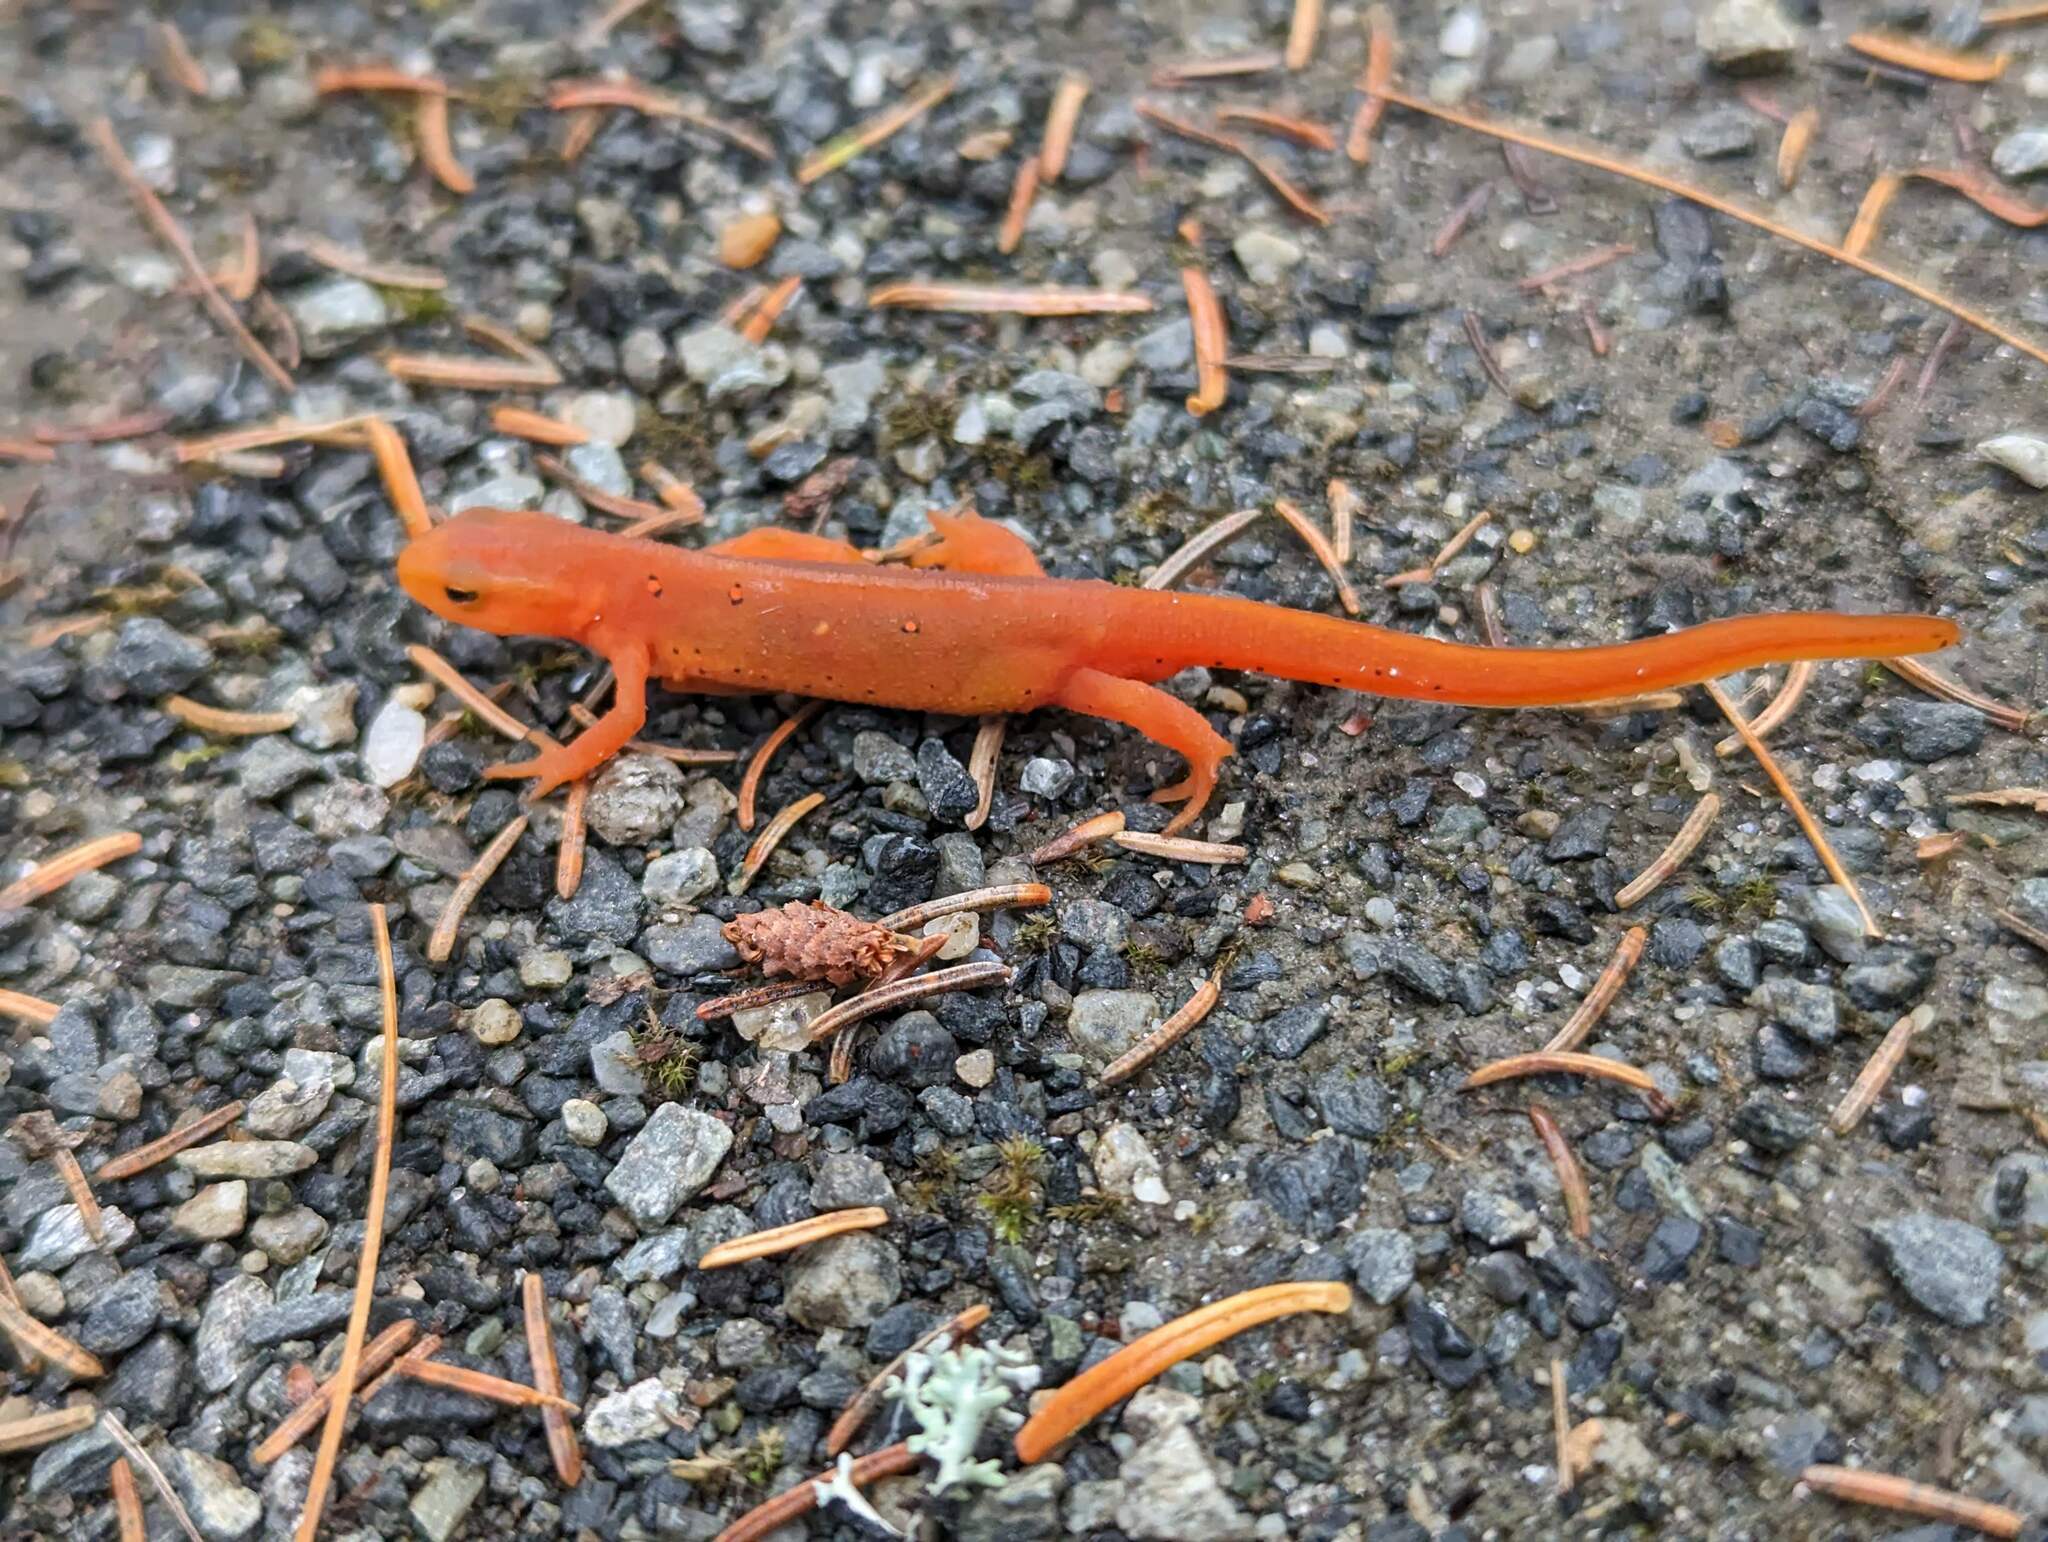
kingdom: Animalia
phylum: Chordata
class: Amphibia
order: Caudata
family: Salamandridae
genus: Notophthalmus
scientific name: Notophthalmus viridescens
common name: Eastern newt
